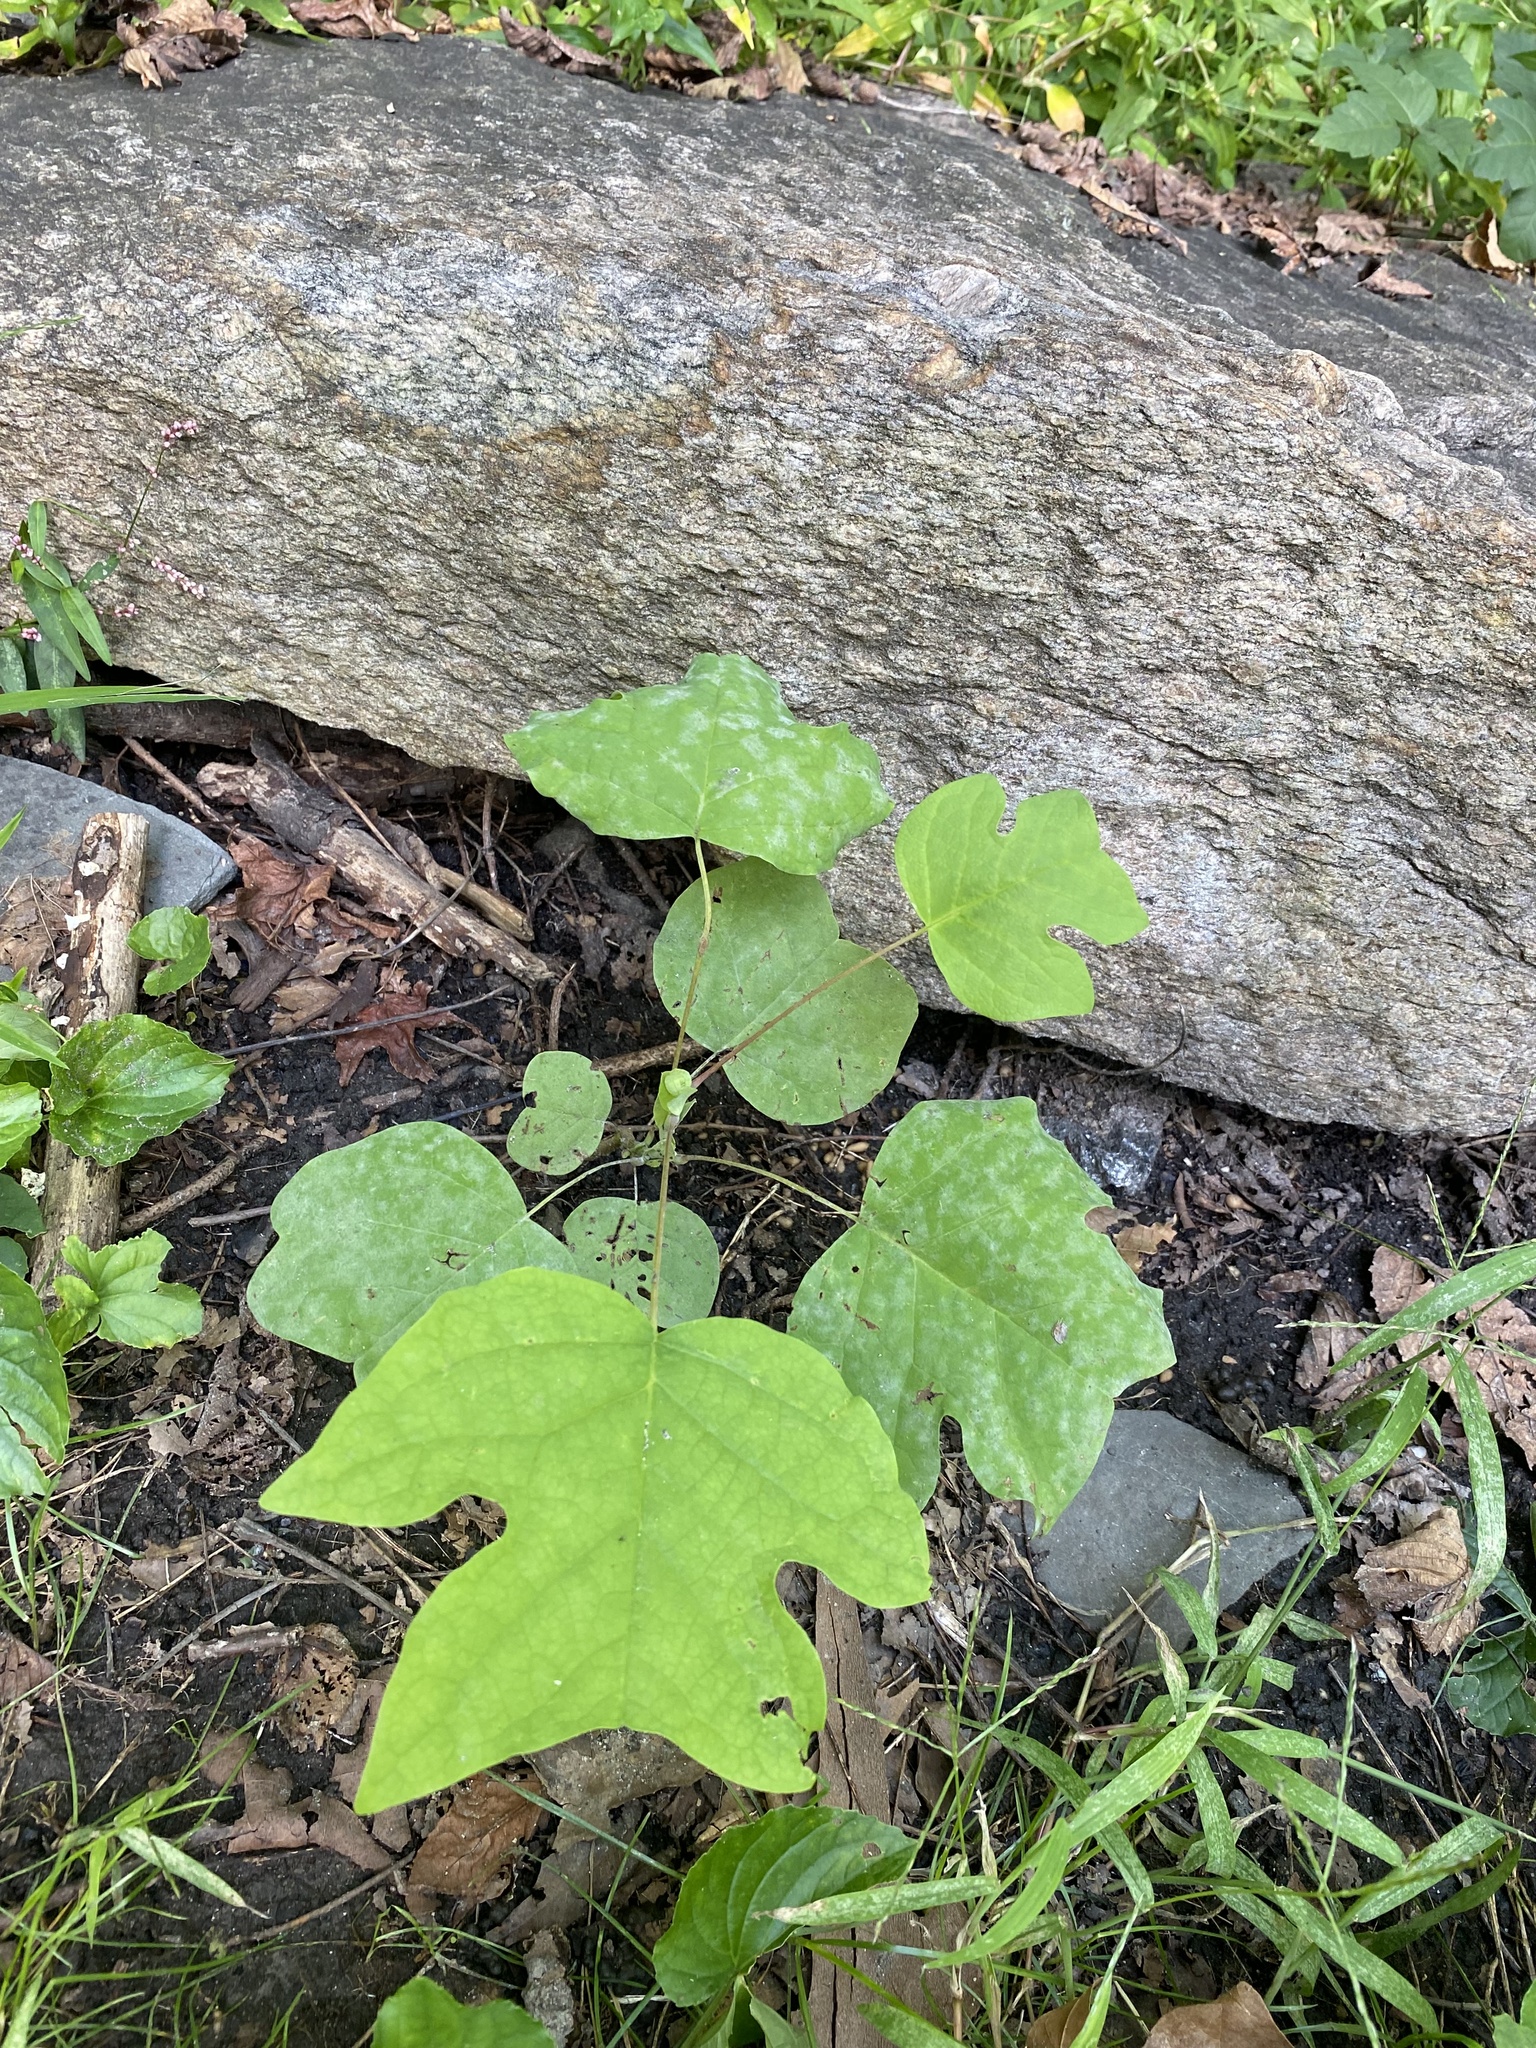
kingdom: Plantae
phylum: Tracheophyta
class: Magnoliopsida
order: Magnoliales
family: Magnoliaceae
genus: Liriodendron
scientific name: Liriodendron tulipifera
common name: Tulip tree
